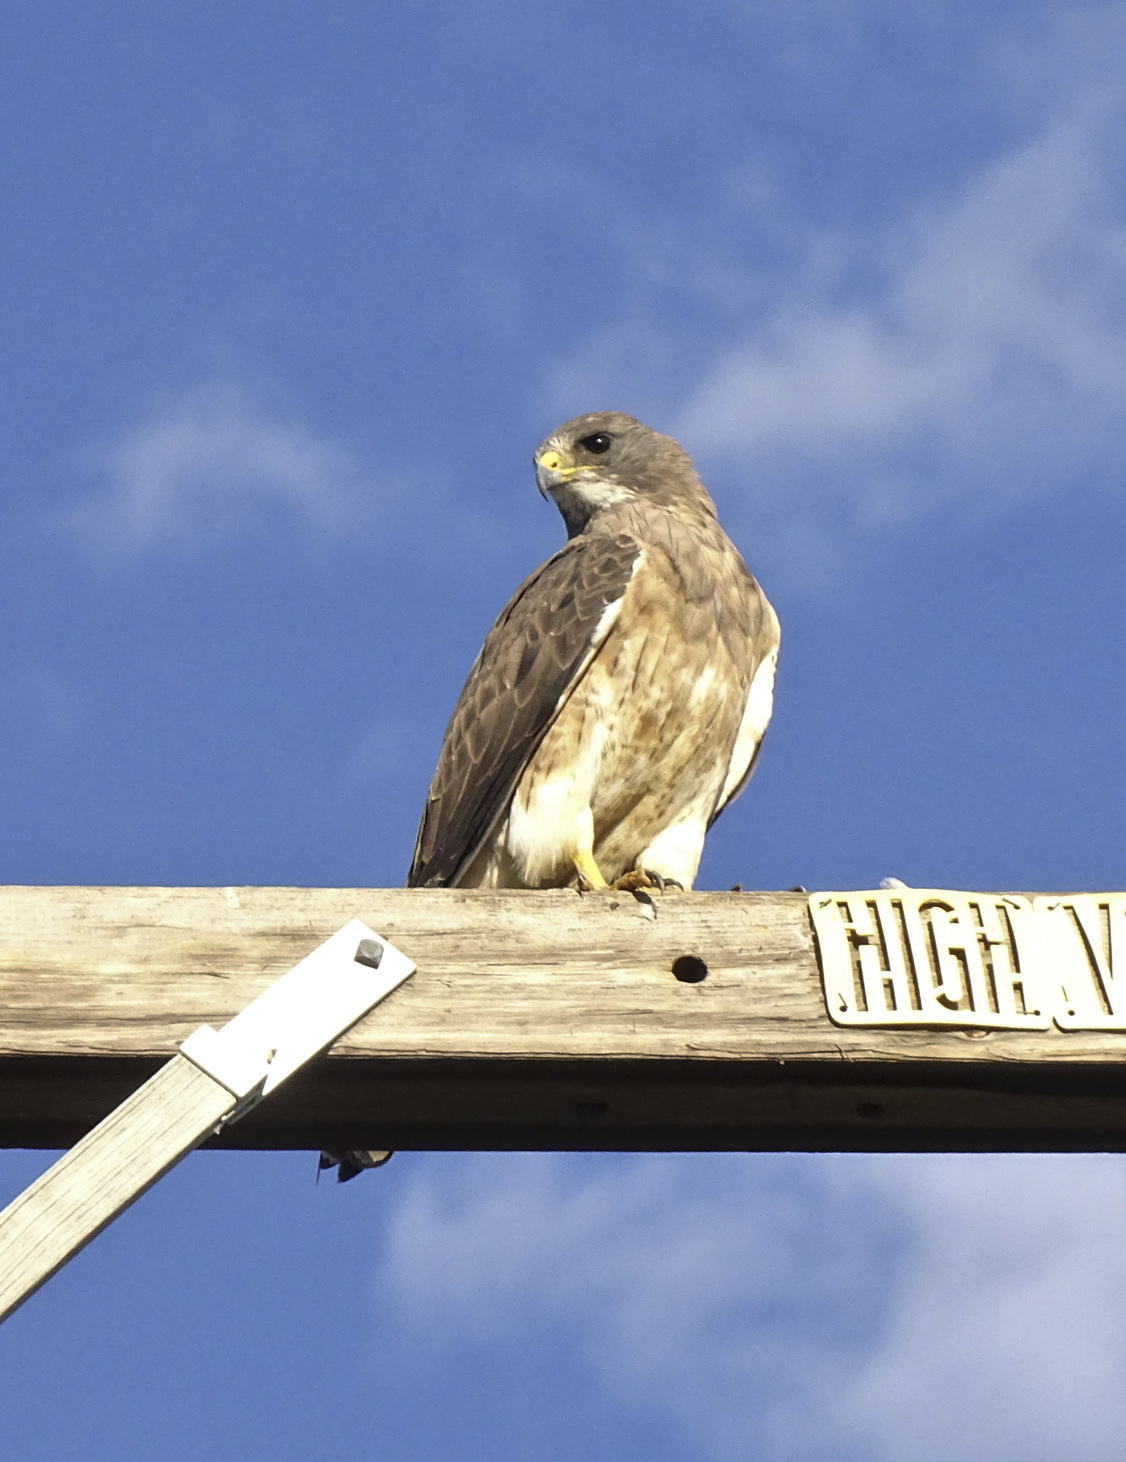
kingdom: Animalia
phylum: Chordata
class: Aves
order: Accipitriformes
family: Accipitridae
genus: Buteo
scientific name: Buteo swainsoni
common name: Swainson's hawk
